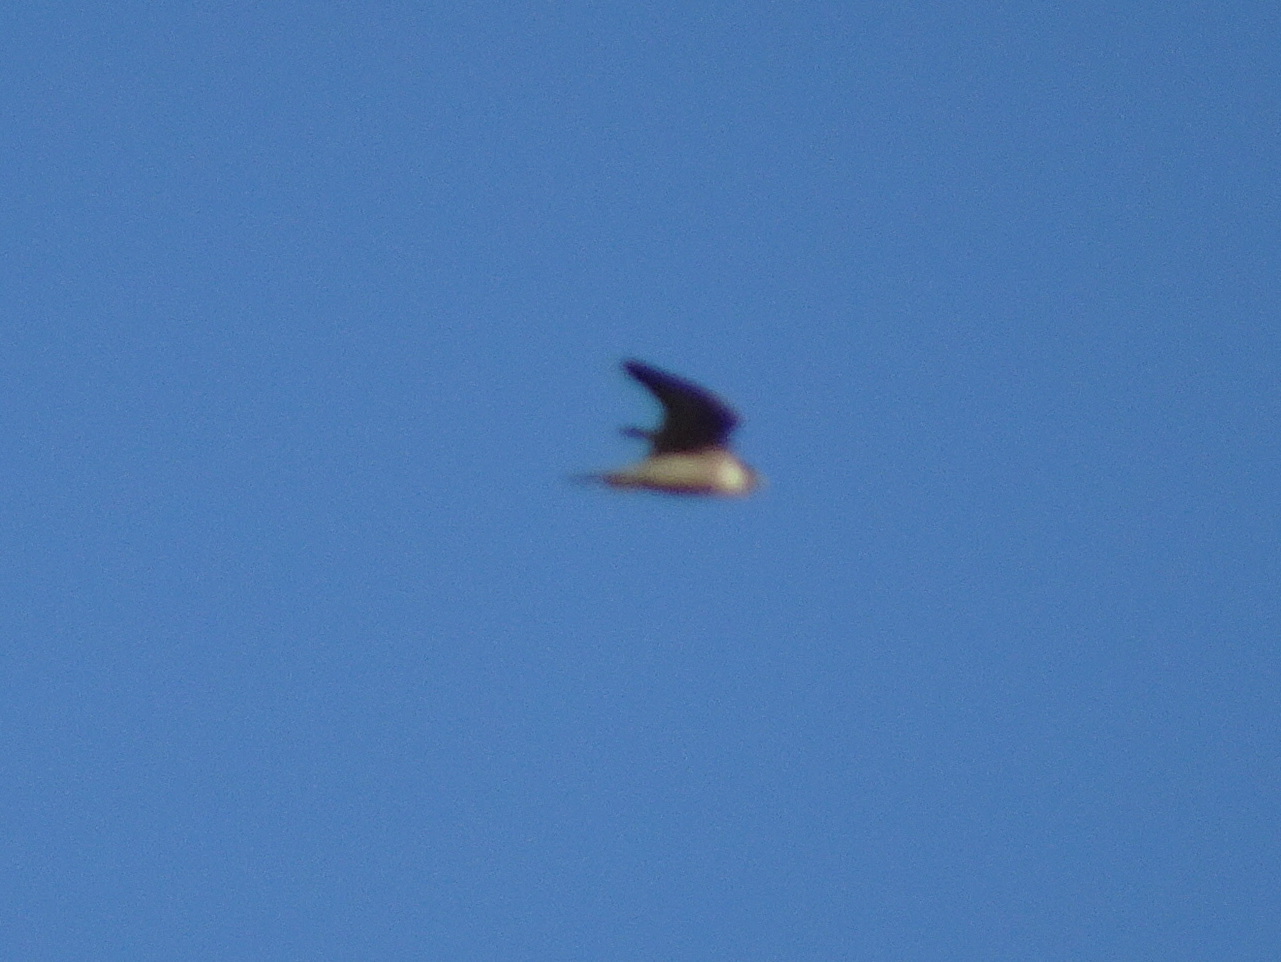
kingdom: Animalia
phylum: Chordata
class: Aves
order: Falconiformes
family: Falconidae
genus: Falco
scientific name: Falco peregrinus
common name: Peregrine falcon
